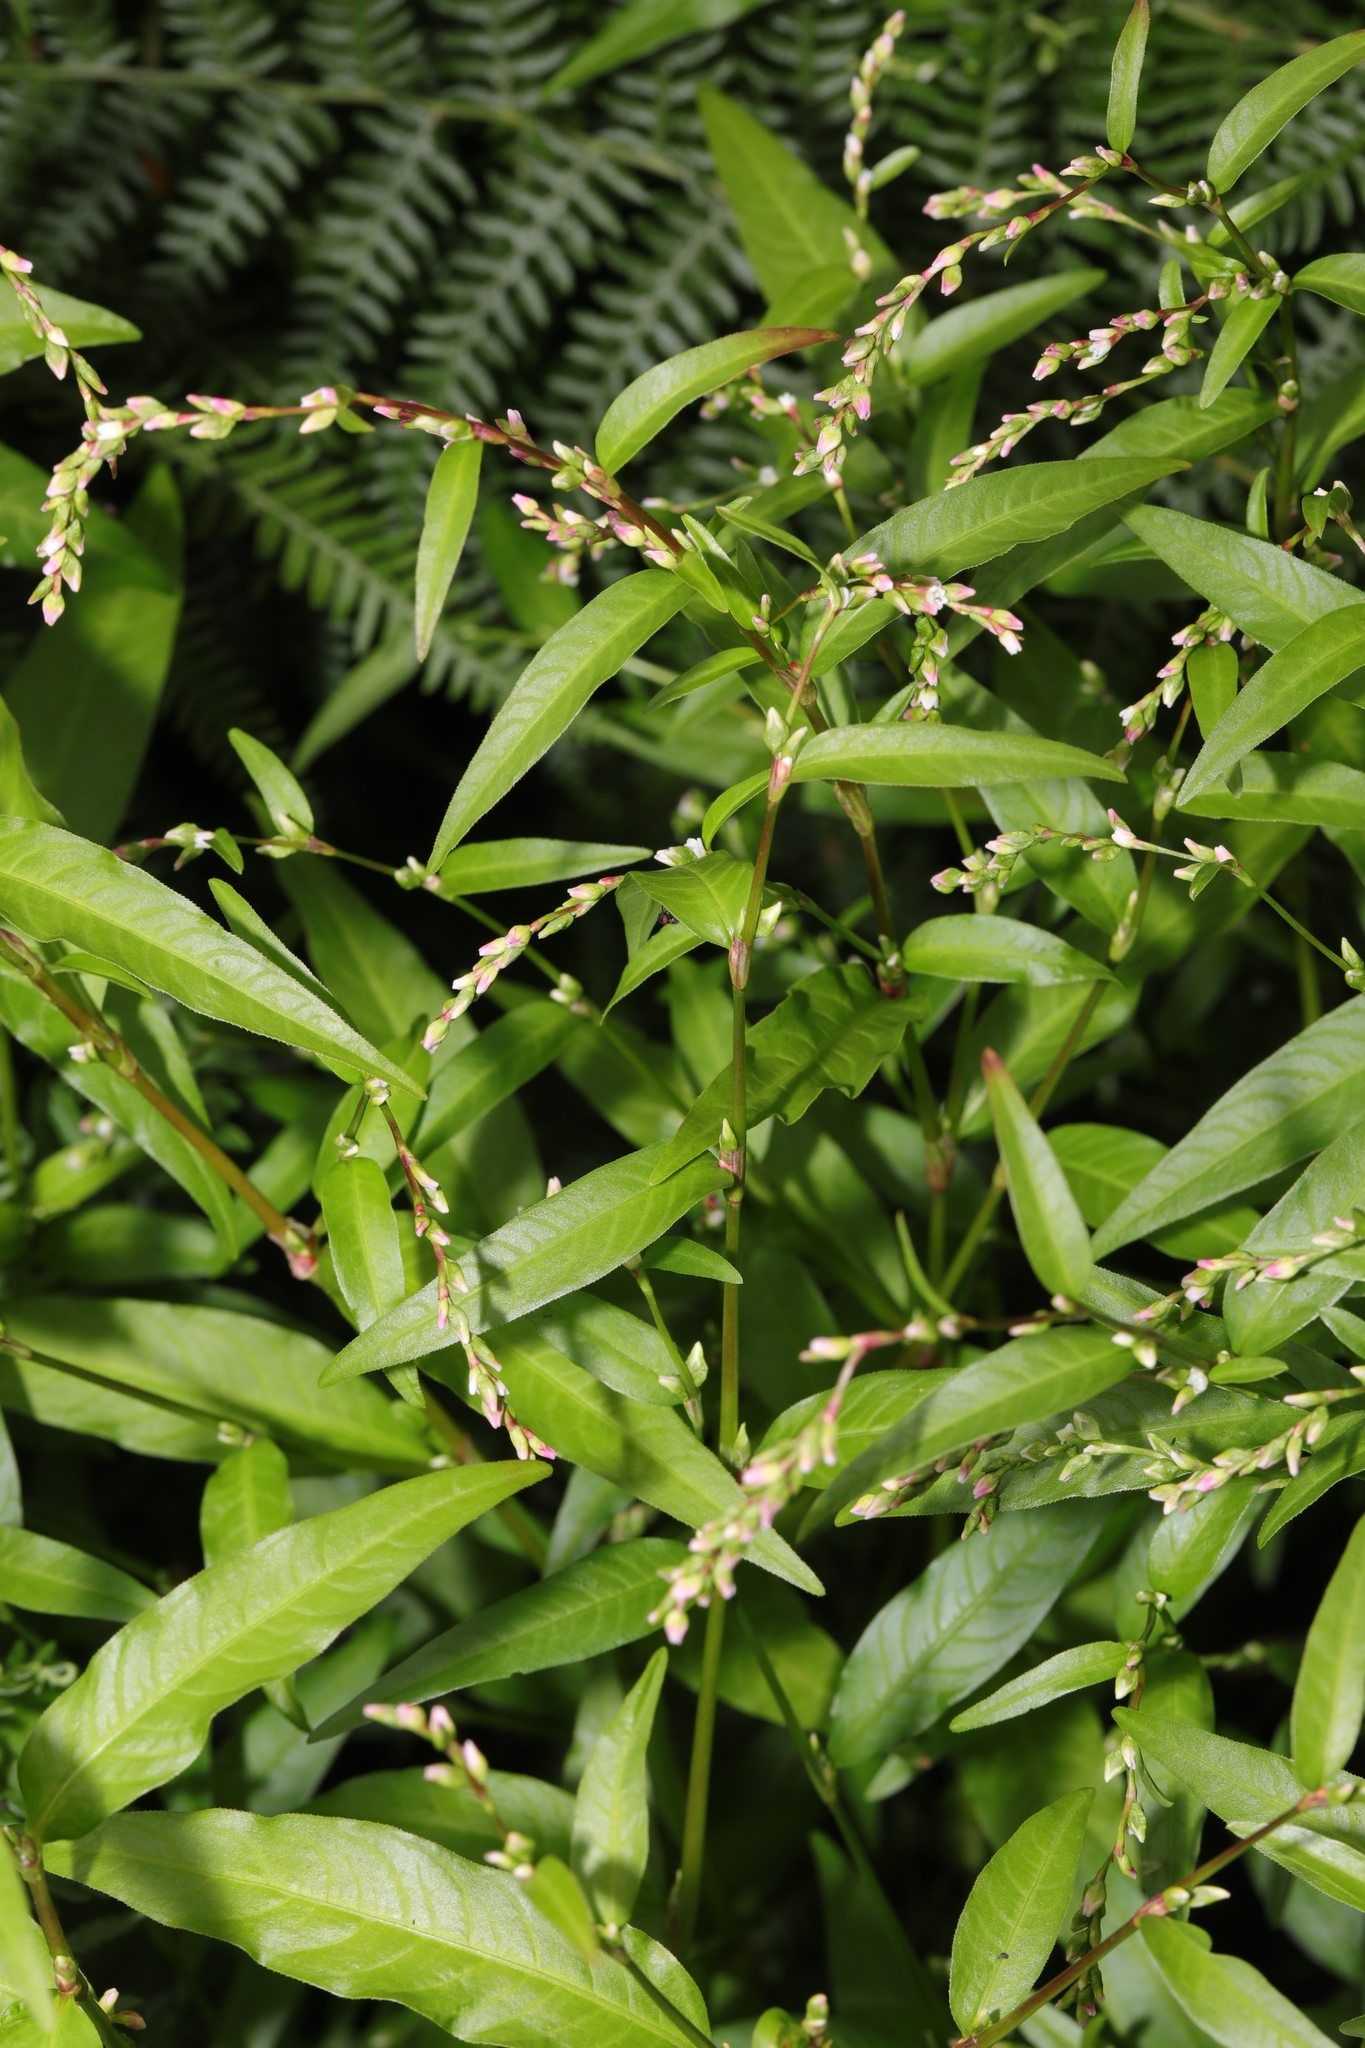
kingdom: Plantae
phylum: Tracheophyta
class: Magnoliopsida
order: Caryophyllales
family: Polygonaceae
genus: Persicaria
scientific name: Persicaria hydropiper
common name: Water-pepper
